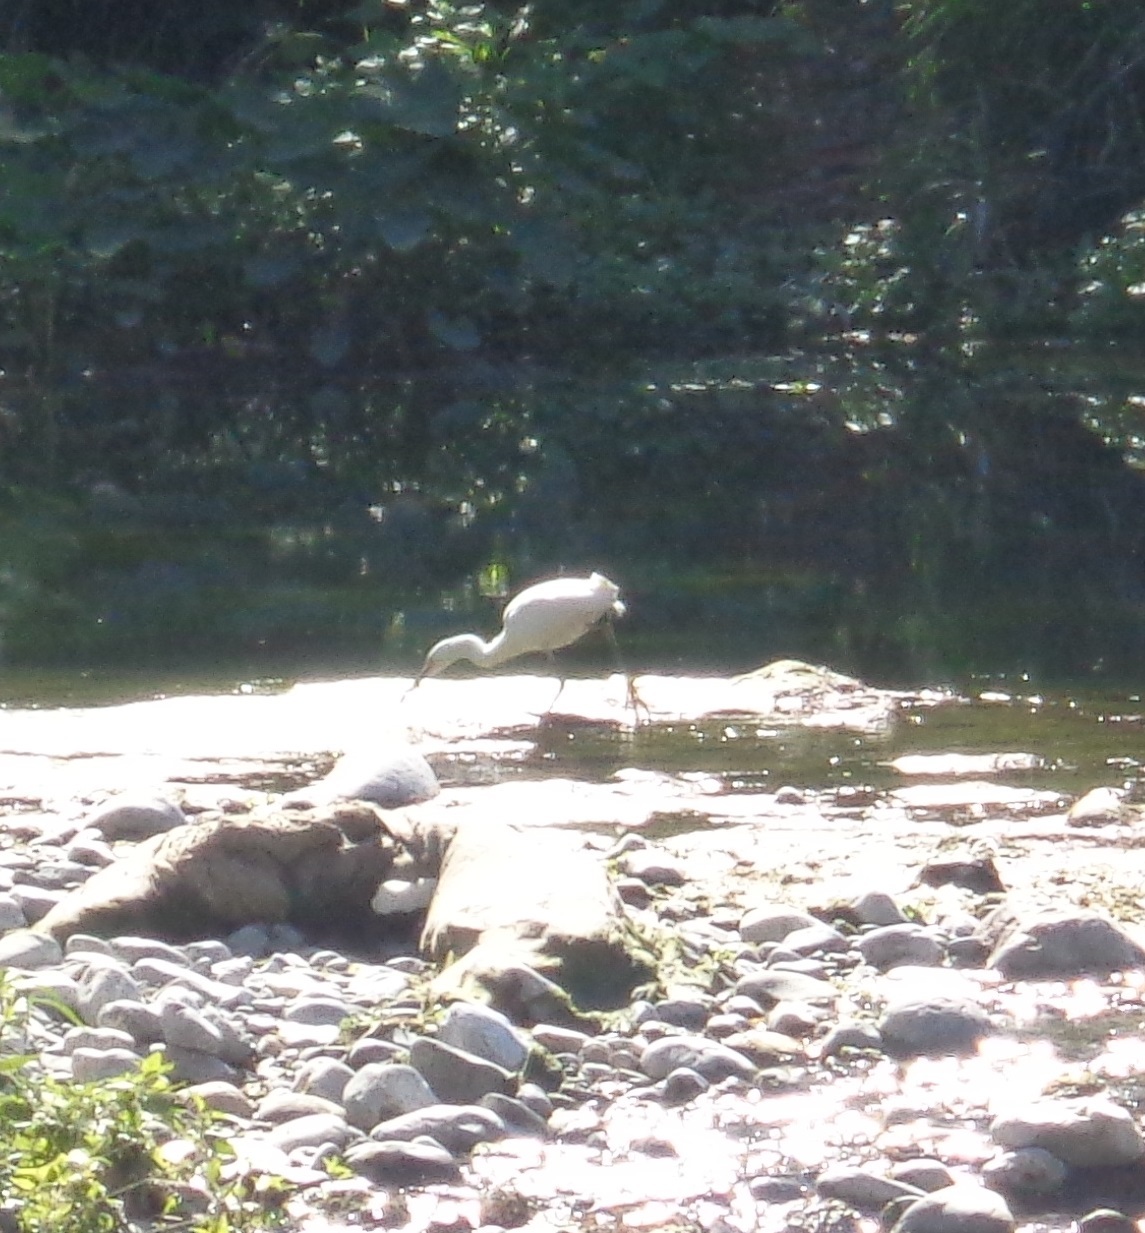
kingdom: Animalia
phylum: Chordata
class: Aves
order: Pelecaniformes
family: Ardeidae
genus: Egretta
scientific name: Egretta thula
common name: Snowy egret
